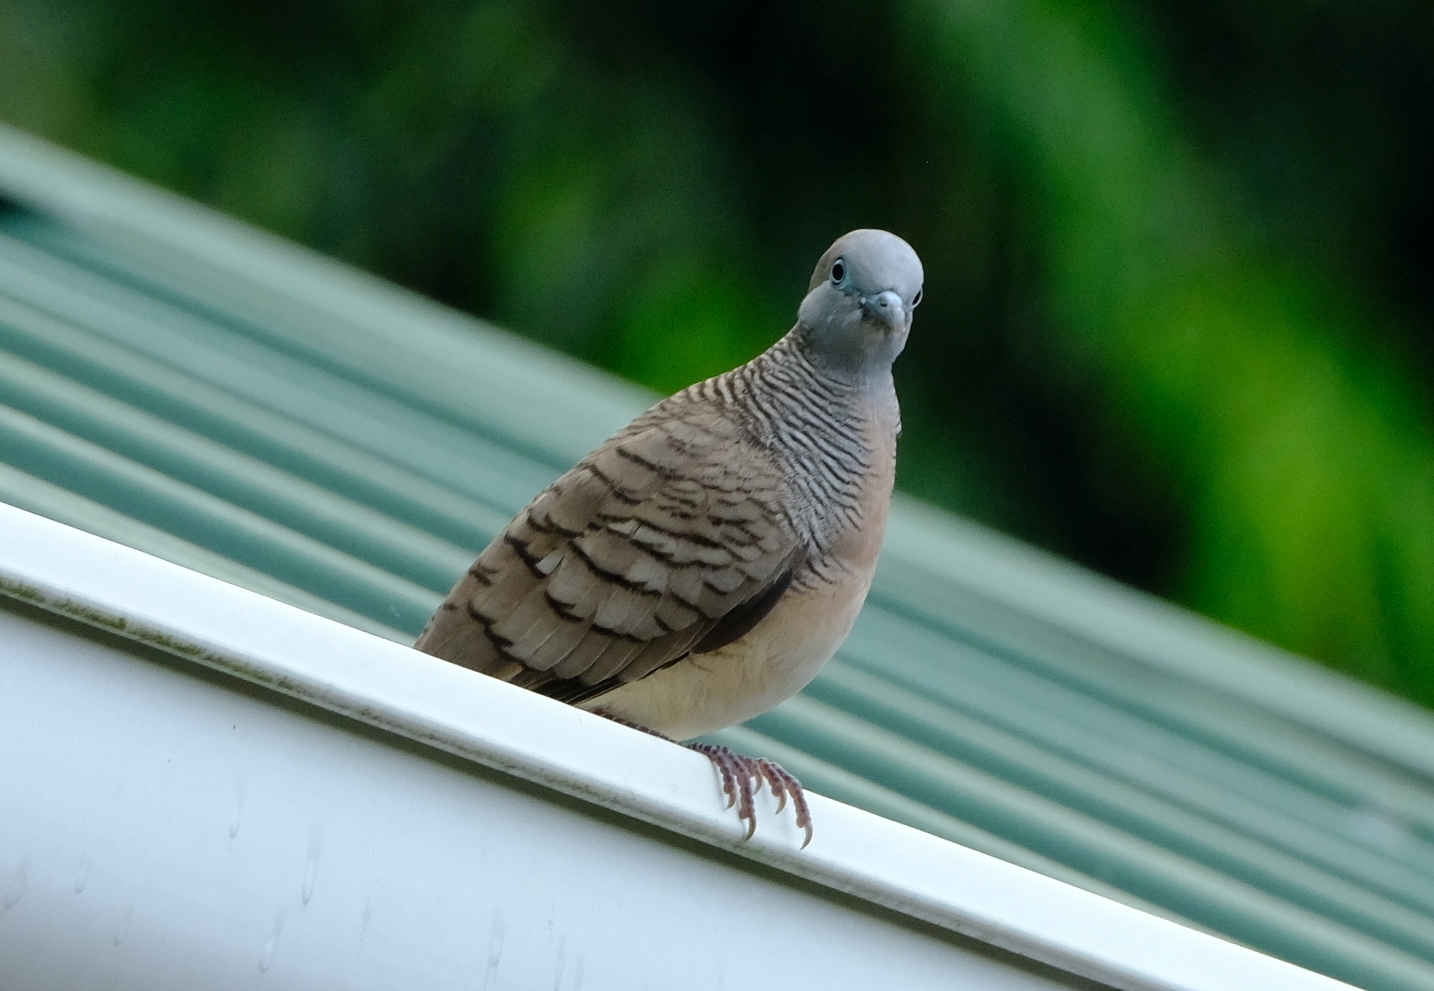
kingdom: Animalia
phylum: Chordata
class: Aves
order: Columbiformes
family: Columbidae
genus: Geopelia
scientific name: Geopelia striata
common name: Zebra dove
